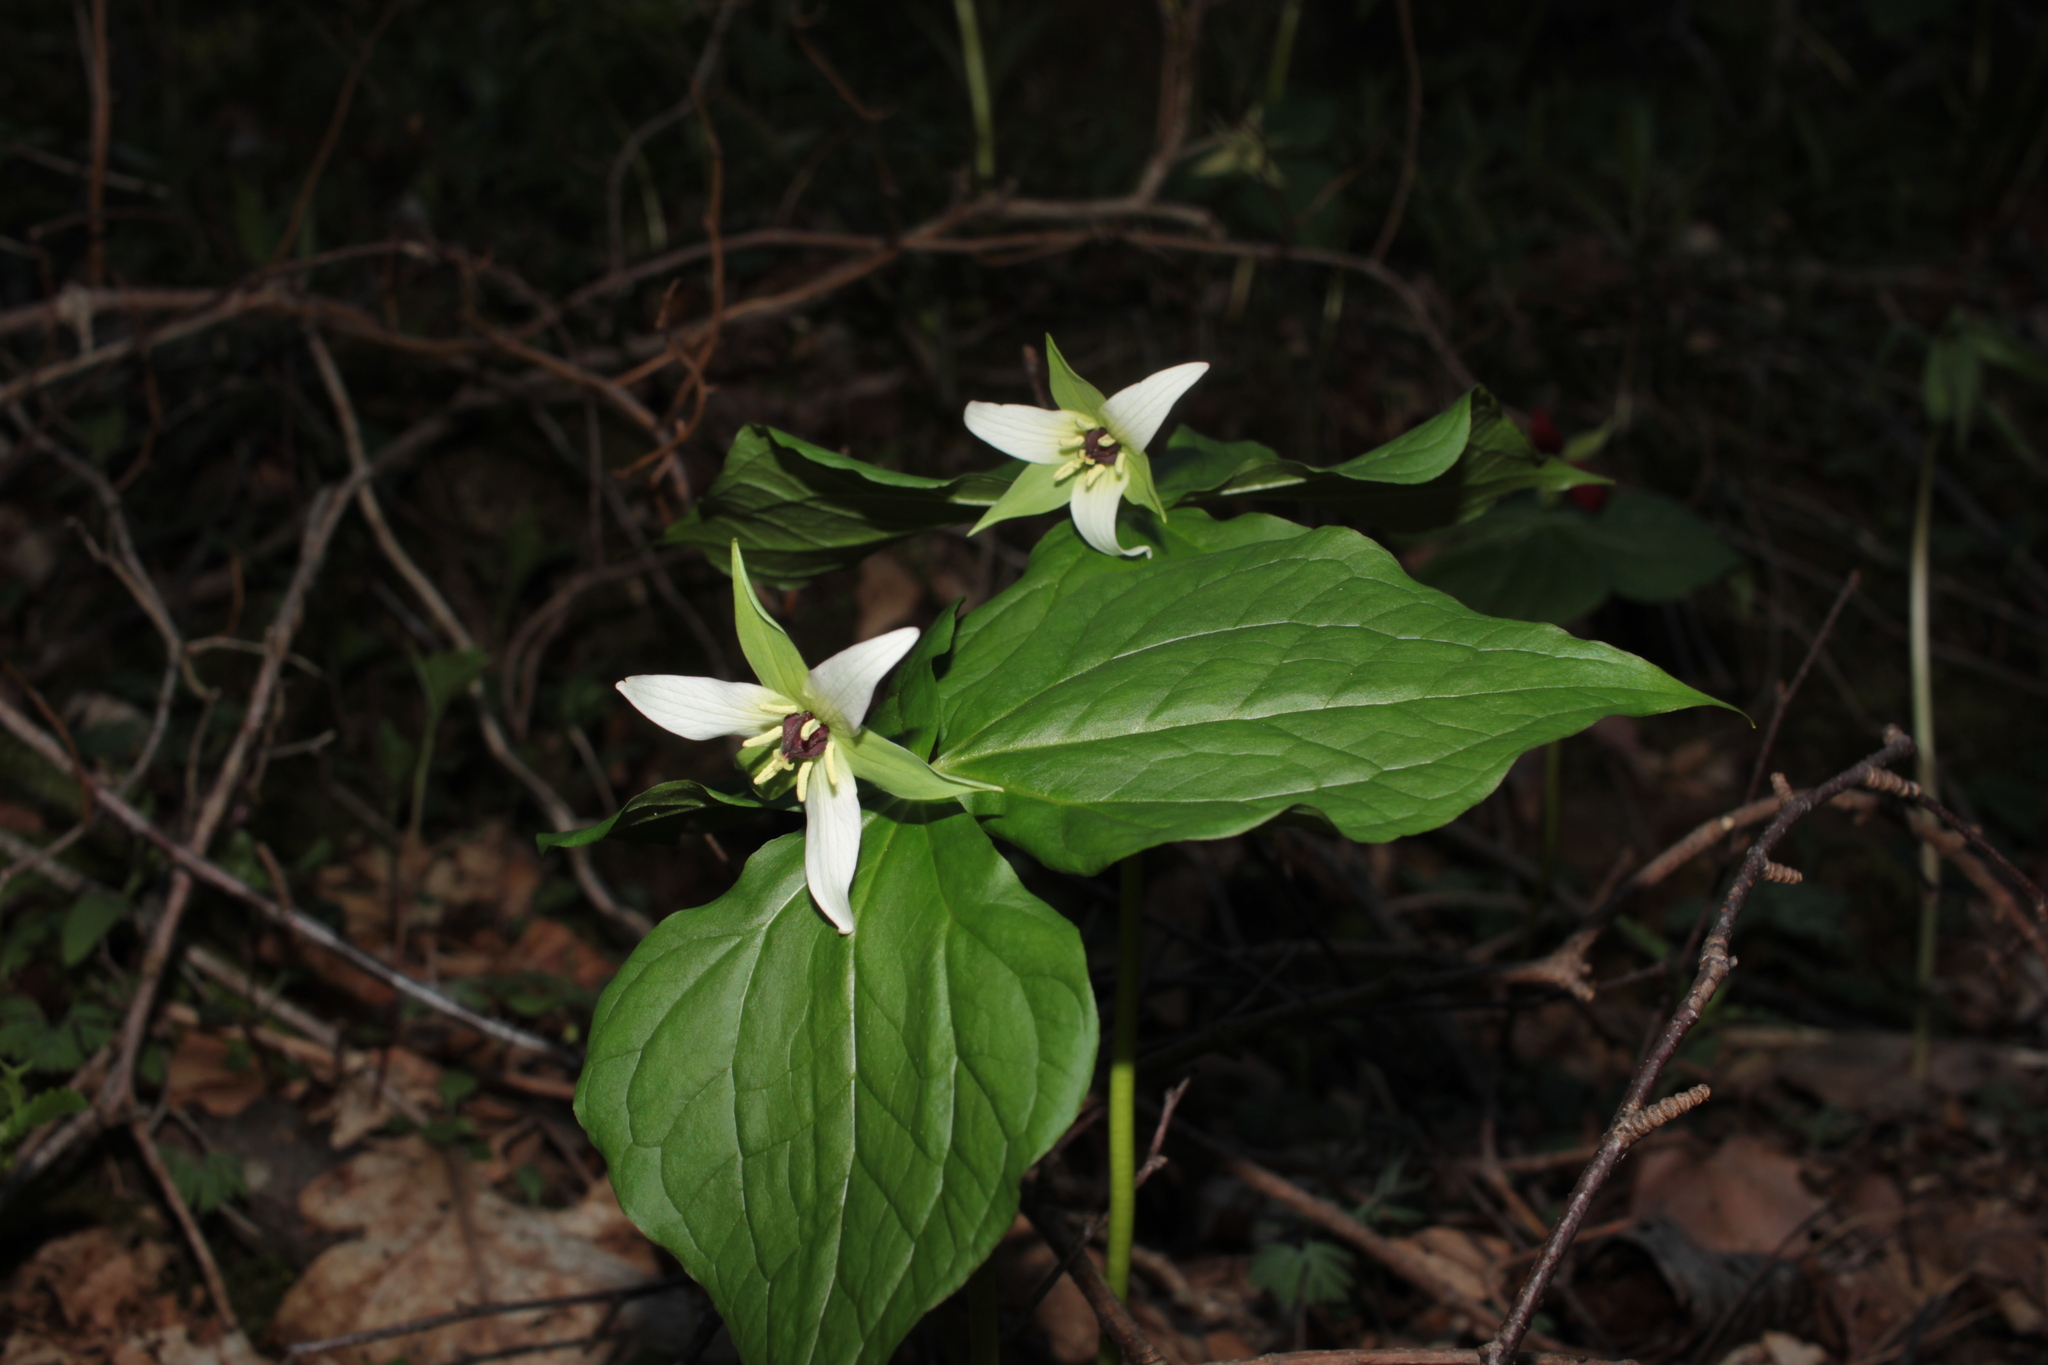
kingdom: Plantae
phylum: Tracheophyta
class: Liliopsida
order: Liliales
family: Melanthiaceae
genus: Trillium
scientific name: Trillium erectum
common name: Purple trillium
